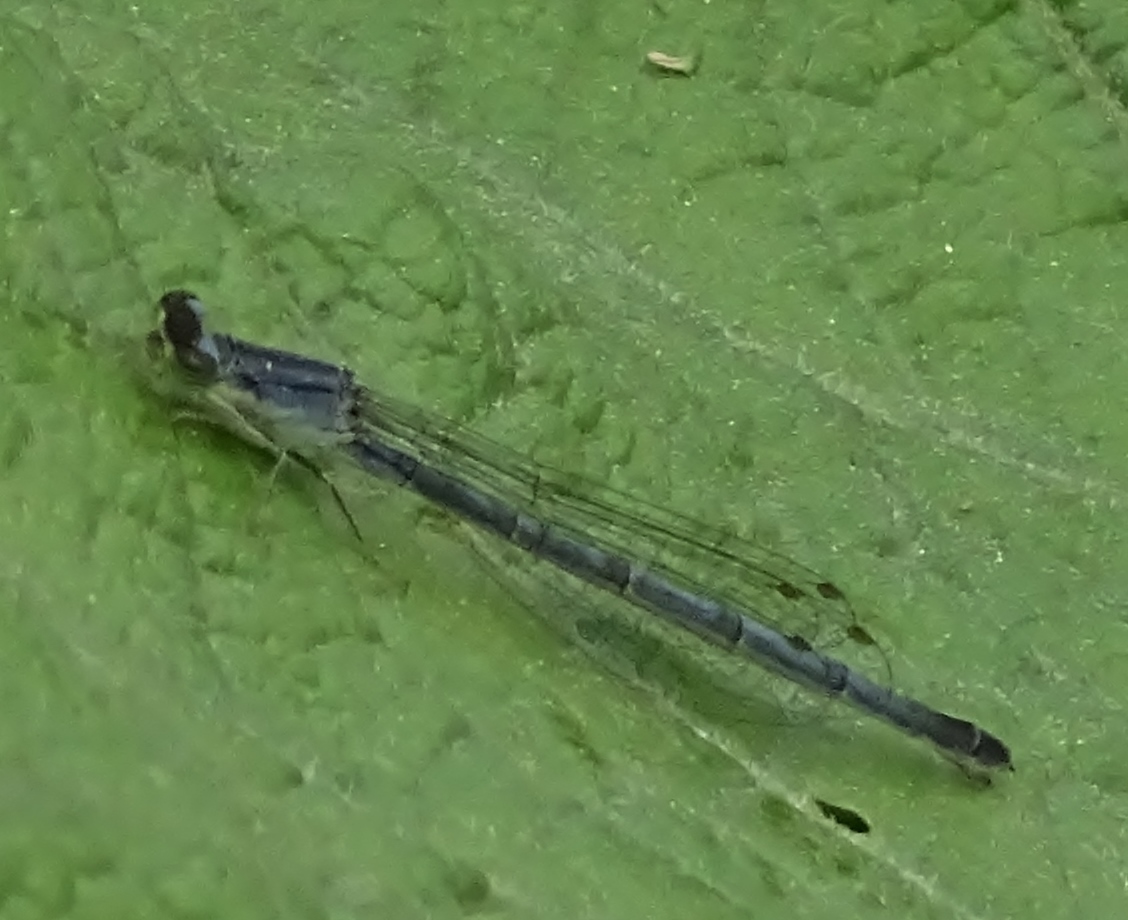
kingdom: Animalia
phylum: Arthropoda
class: Insecta
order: Odonata
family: Coenagrionidae
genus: Ischnura
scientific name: Ischnura verticalis
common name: Eastern forktail
